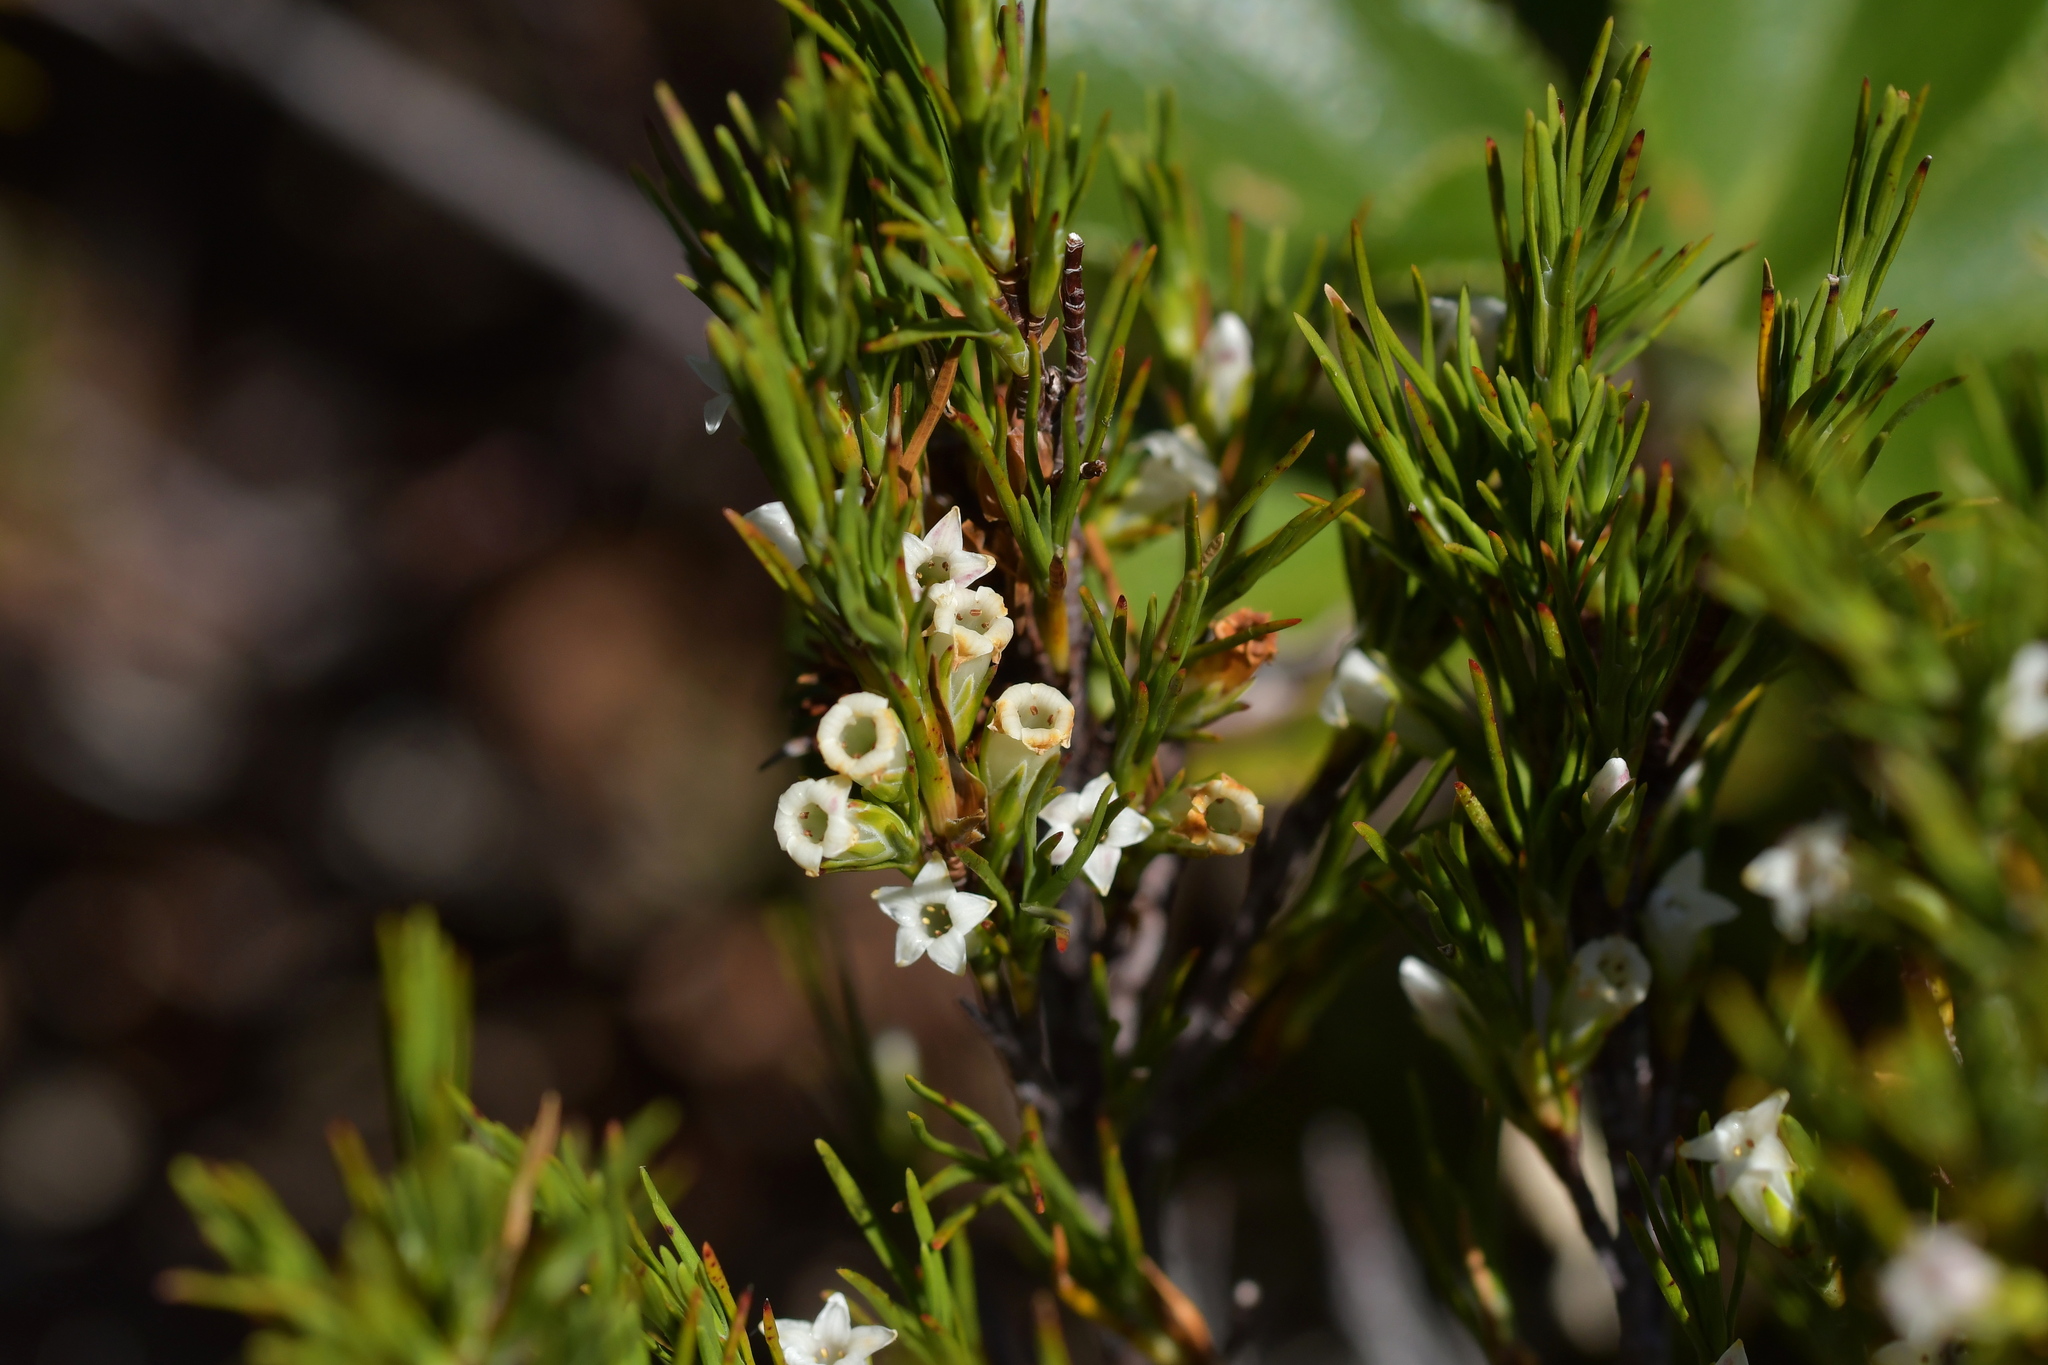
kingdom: Plantae
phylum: Tracheophyta
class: Magnoliopsida
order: Ericales
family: Ericaceae
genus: Dracophyllum
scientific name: Dracophyllum rosmarinifolium
